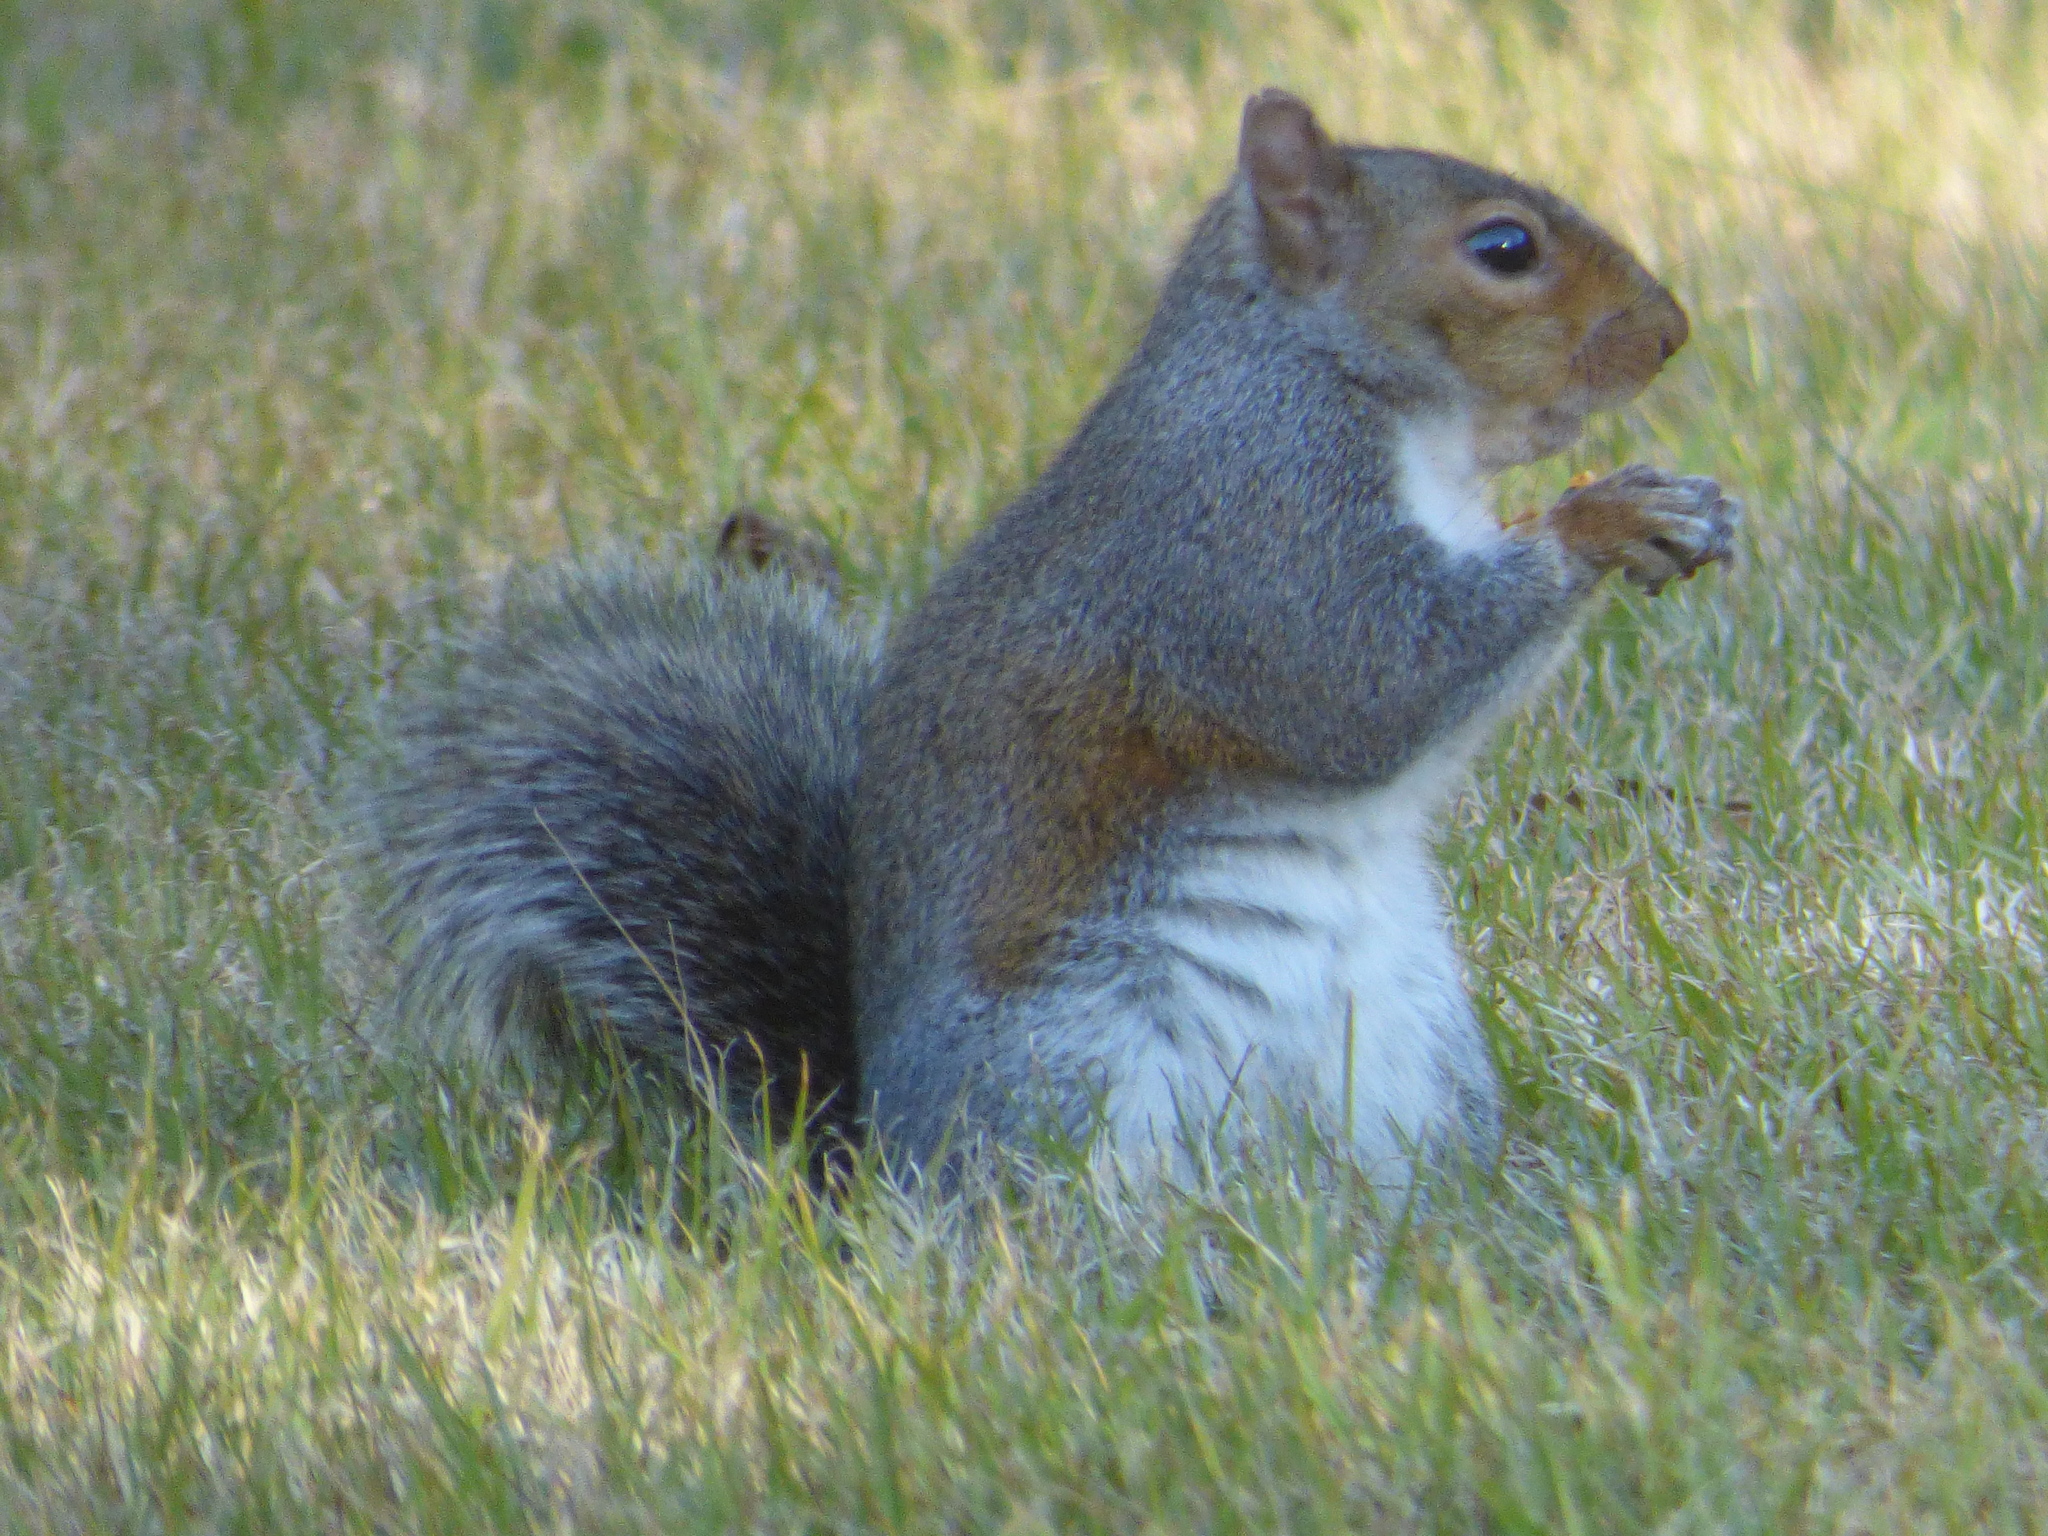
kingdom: Animalia
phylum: Chordata
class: Mammalia
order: Rodentia
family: Sciuridae
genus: Sciurus
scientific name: Sciurus carolinensis
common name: Eastern gray squirrel
